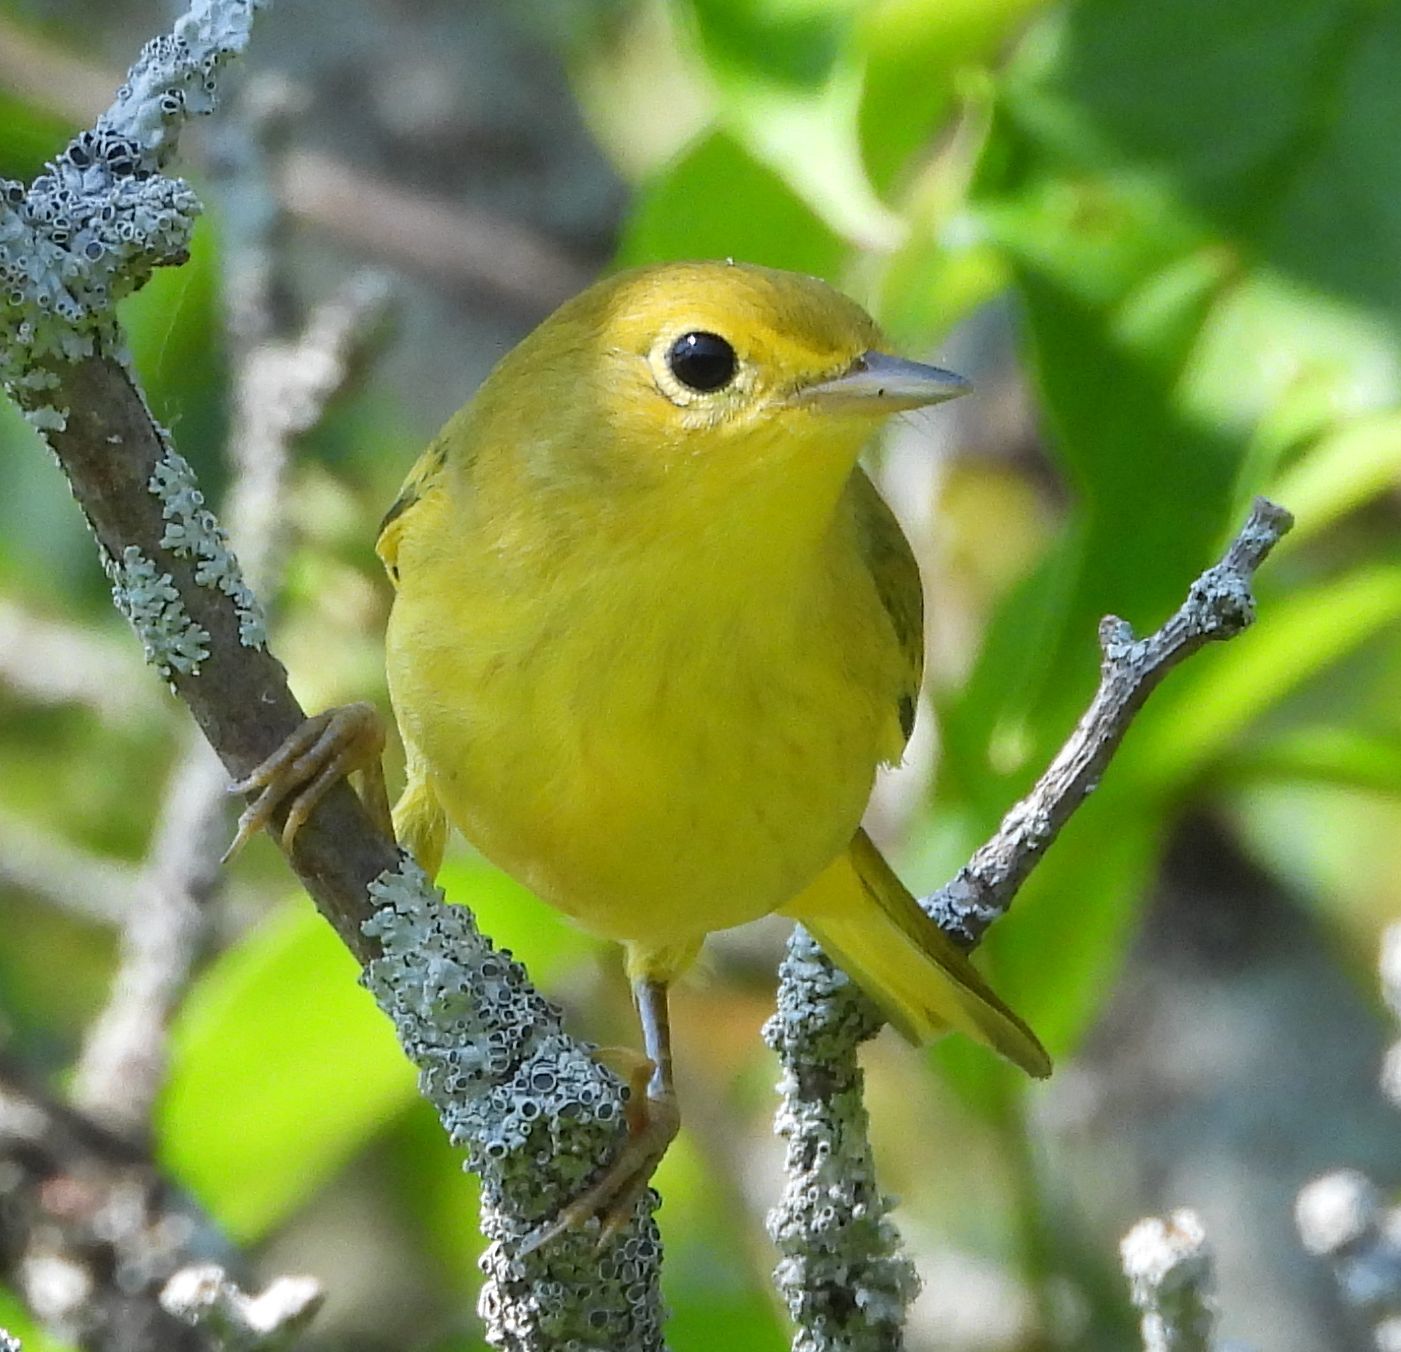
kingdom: Animalia
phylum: Chordata
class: Aves
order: Passeriformes
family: Parulidae
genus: Setophaga
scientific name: Setophaga petechia
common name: Yellow warbler
